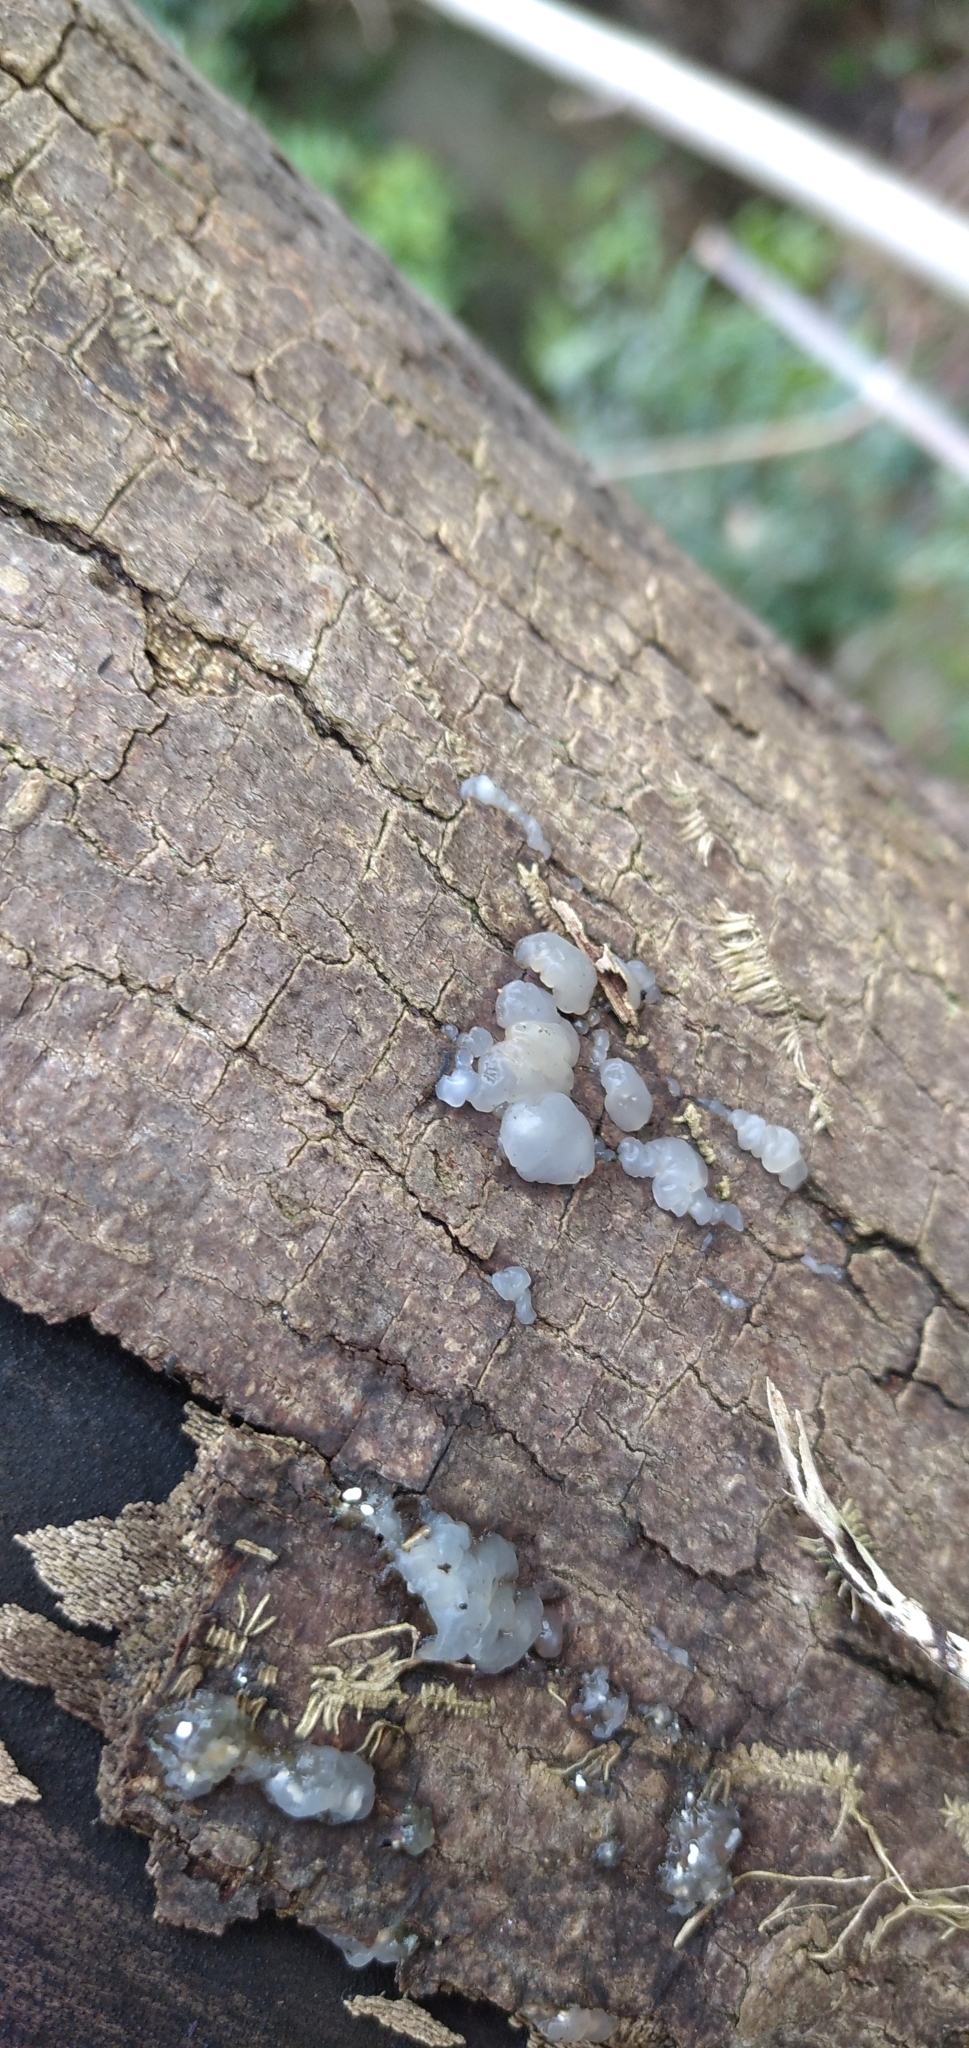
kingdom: Fungi
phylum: Basidiomycota
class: Agaricomycetes
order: Auriculariales
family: Hyaloriaceae
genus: Myxarium
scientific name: Myxarium nucleatum
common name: Crystal brain fungus
